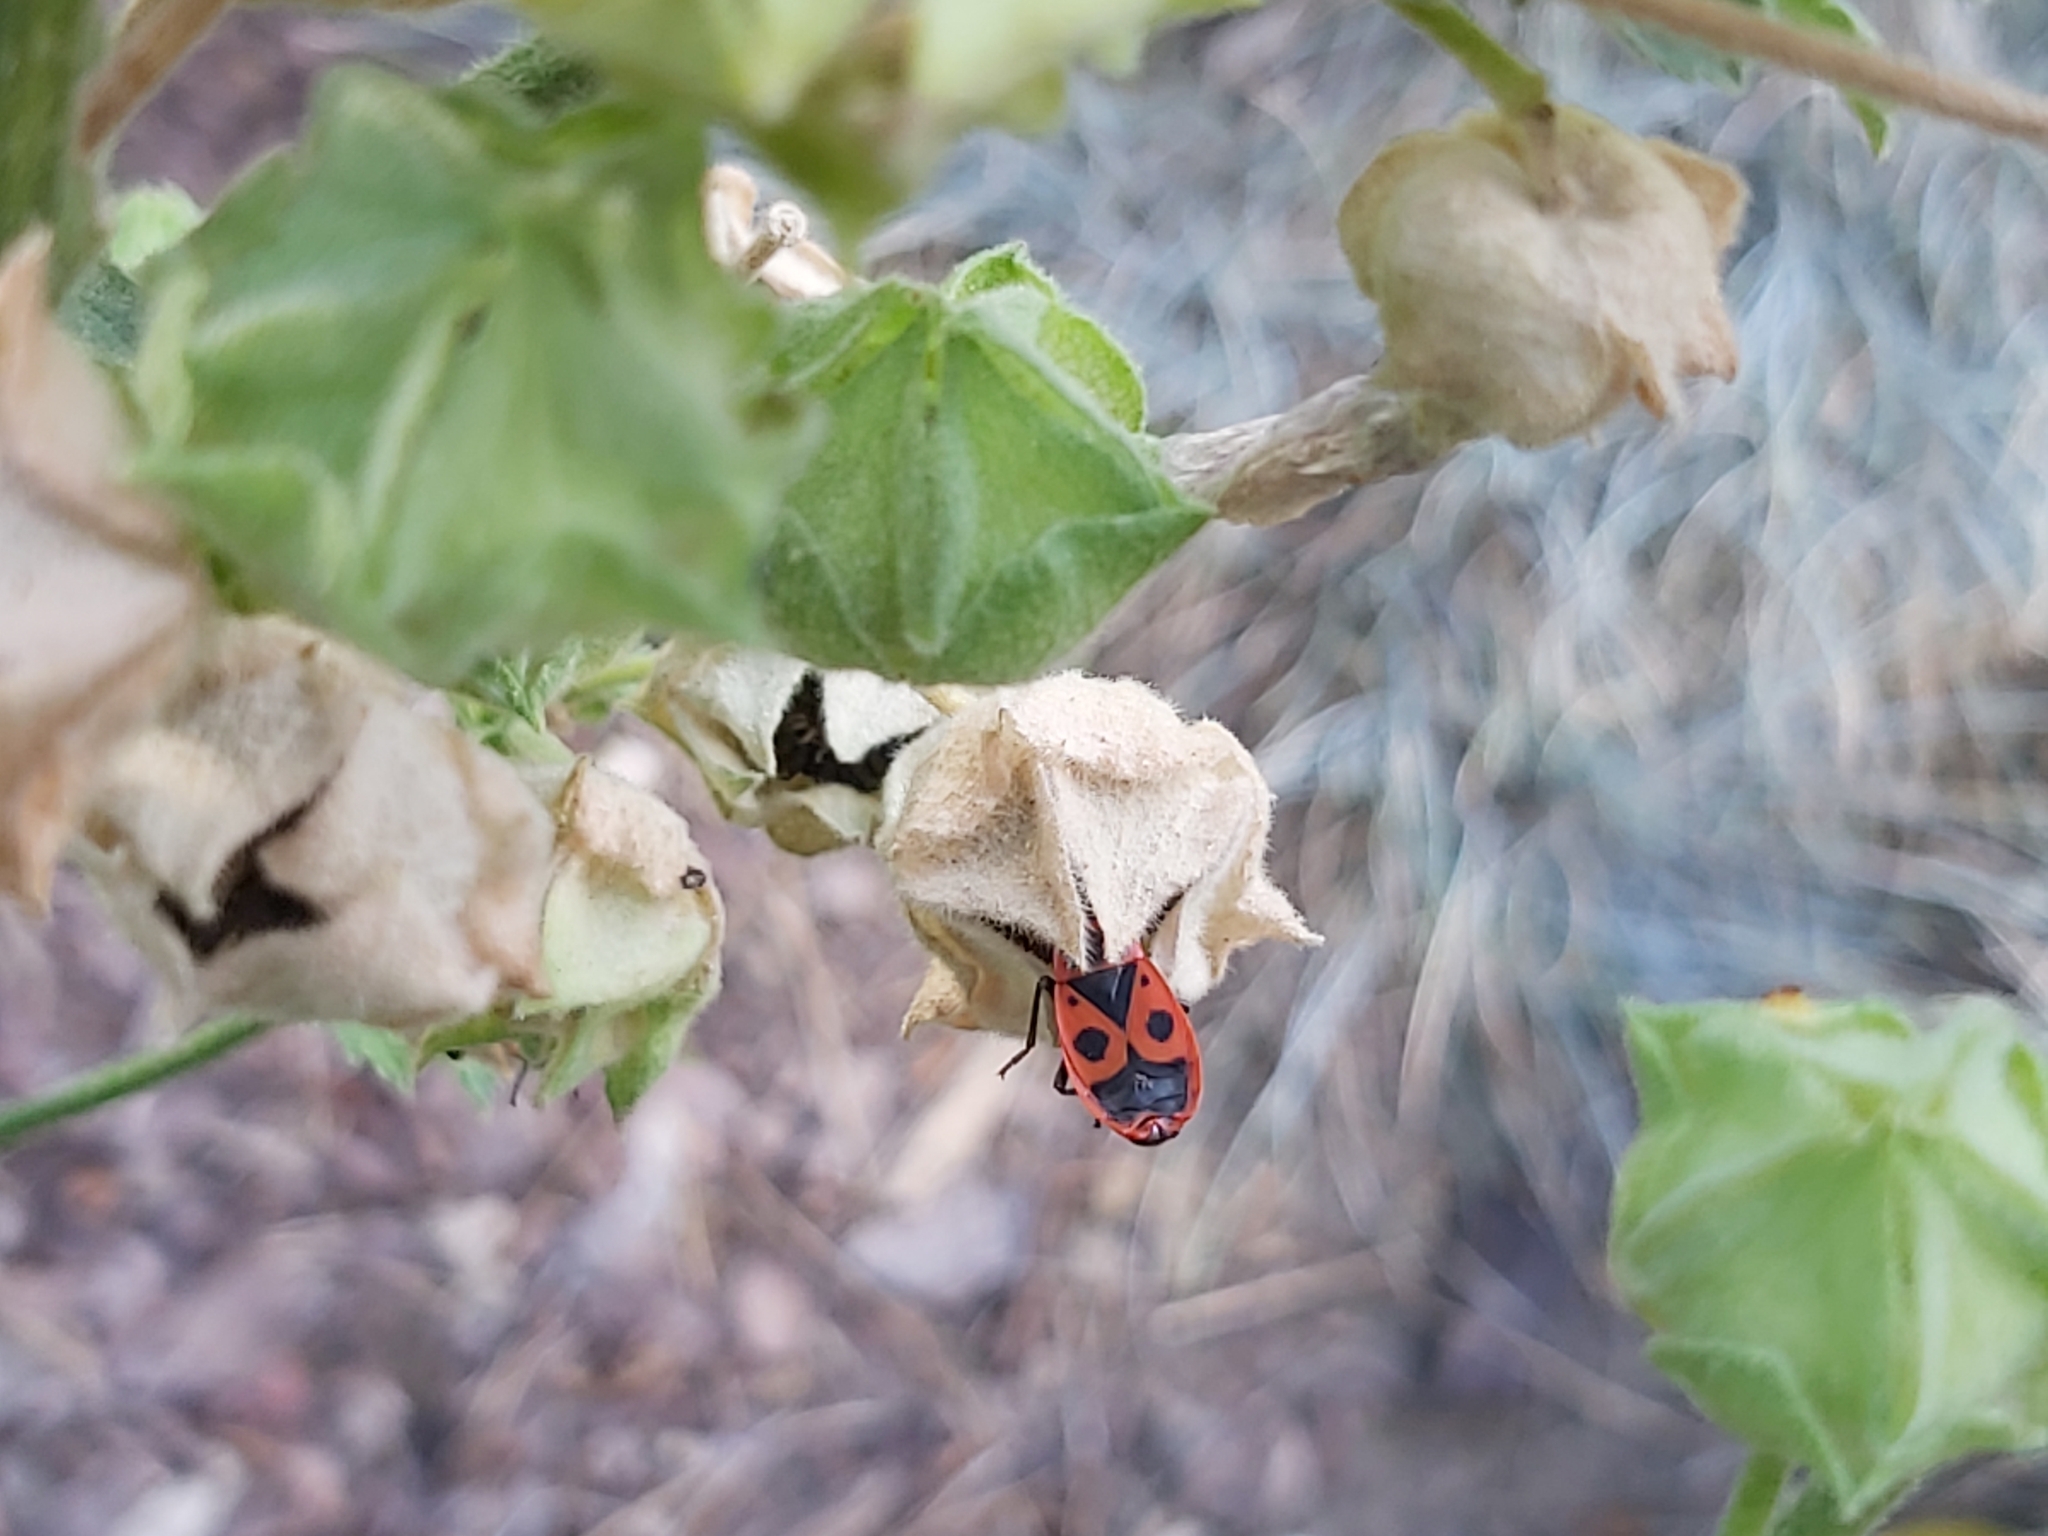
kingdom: Animalia
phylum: Arthropoda
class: Insecta
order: Hemiptera
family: Pyrrhocoridae
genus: Pyrrhocoris
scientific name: Pyrrhocoris apterus
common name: Firebug
